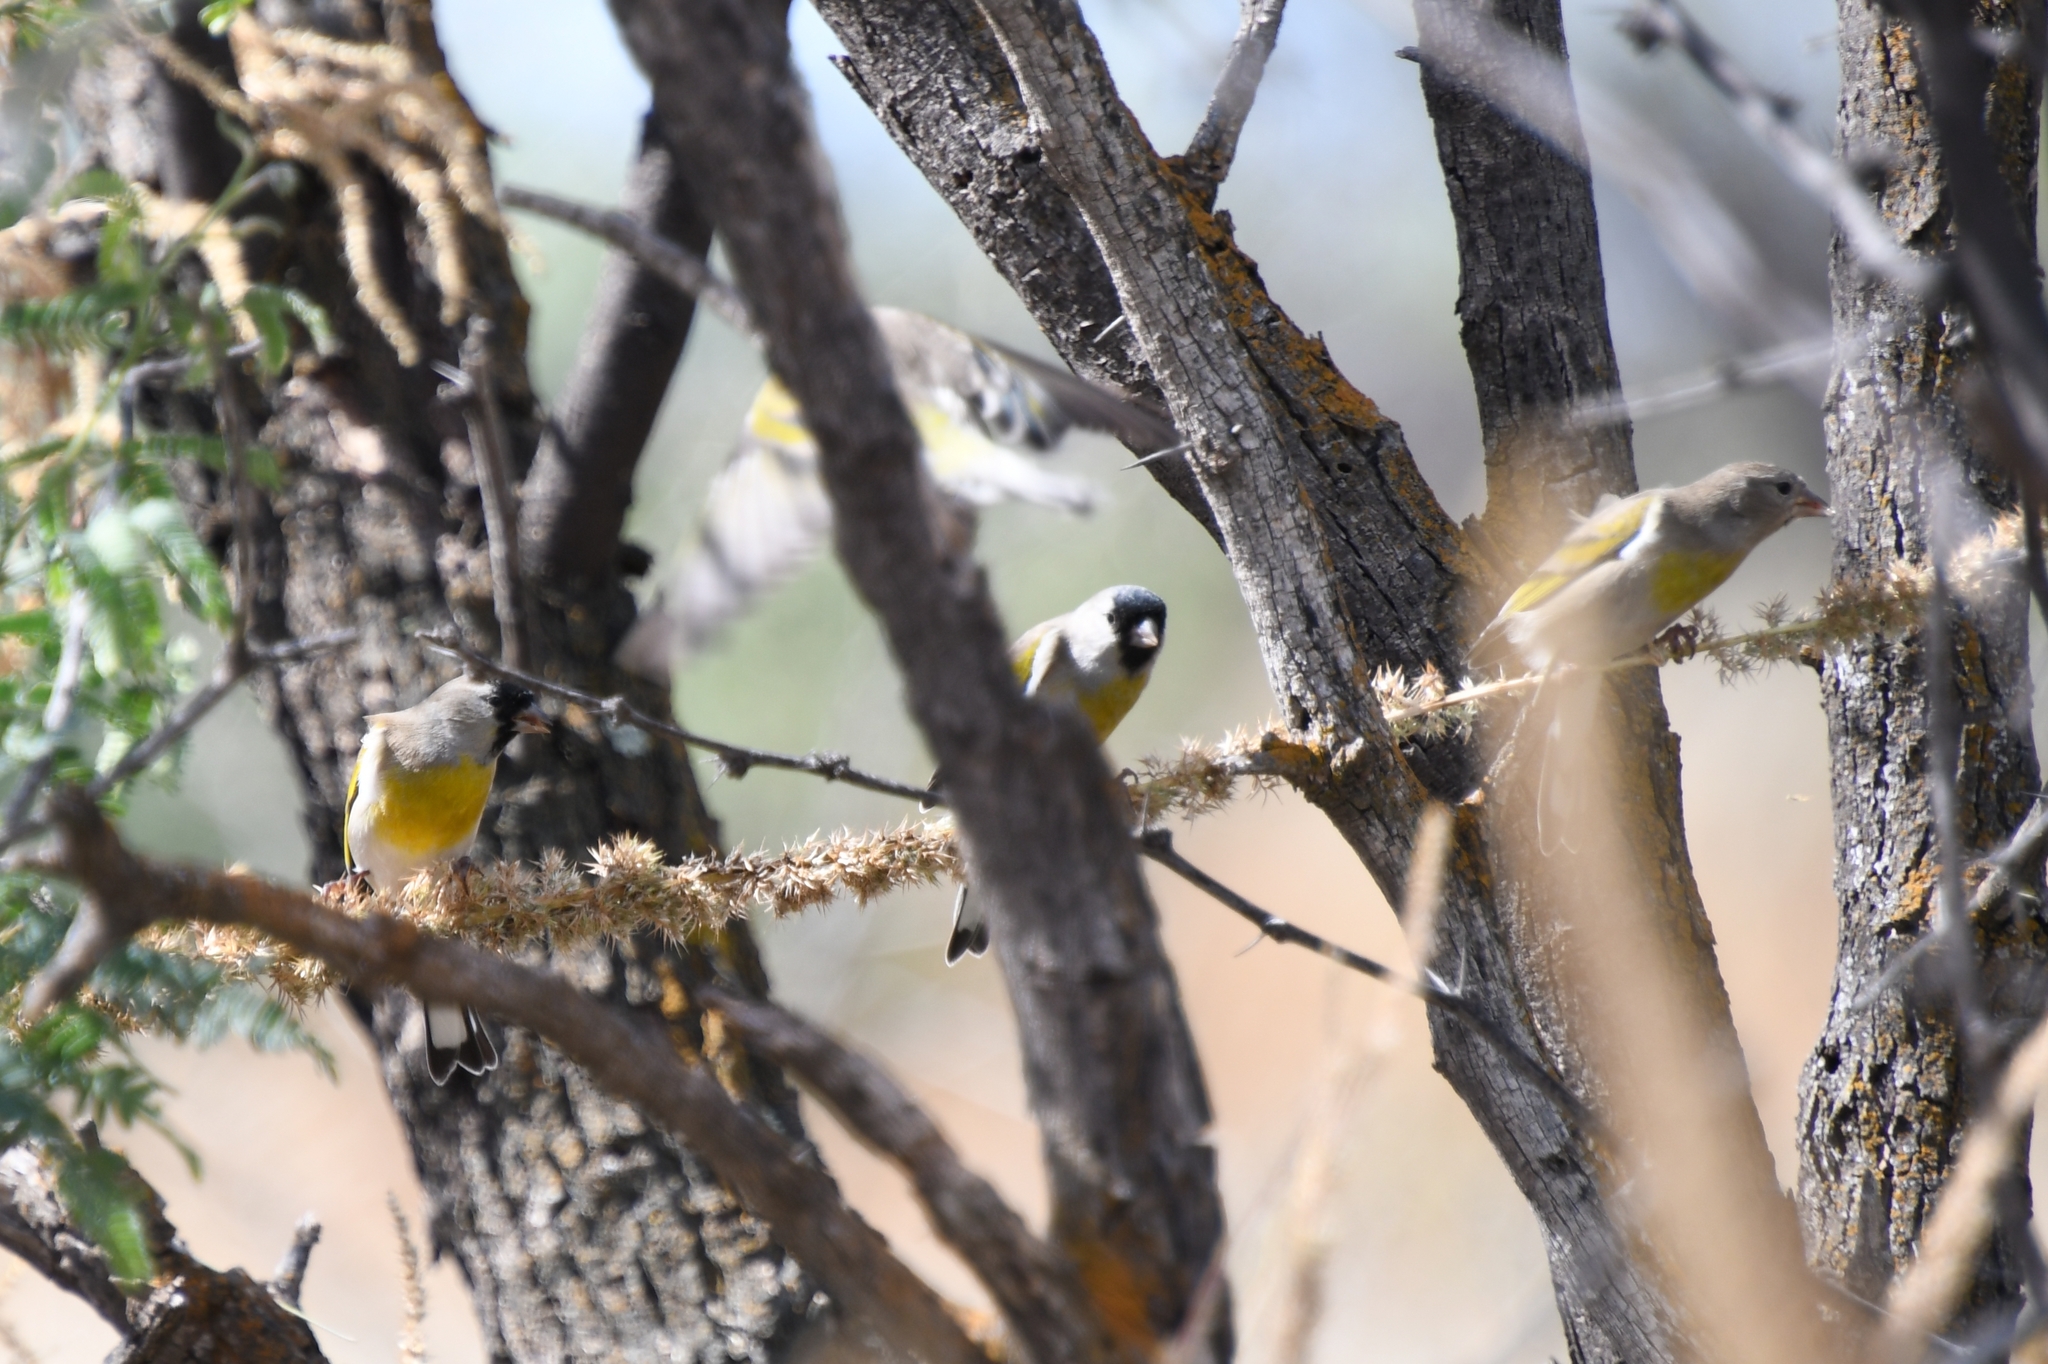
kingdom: Animalia
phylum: Chordata
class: Aves
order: Passeriformes
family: Fringillidae
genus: Spinus
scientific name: Spinus lawrencei
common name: Lawrence's goldfinch
